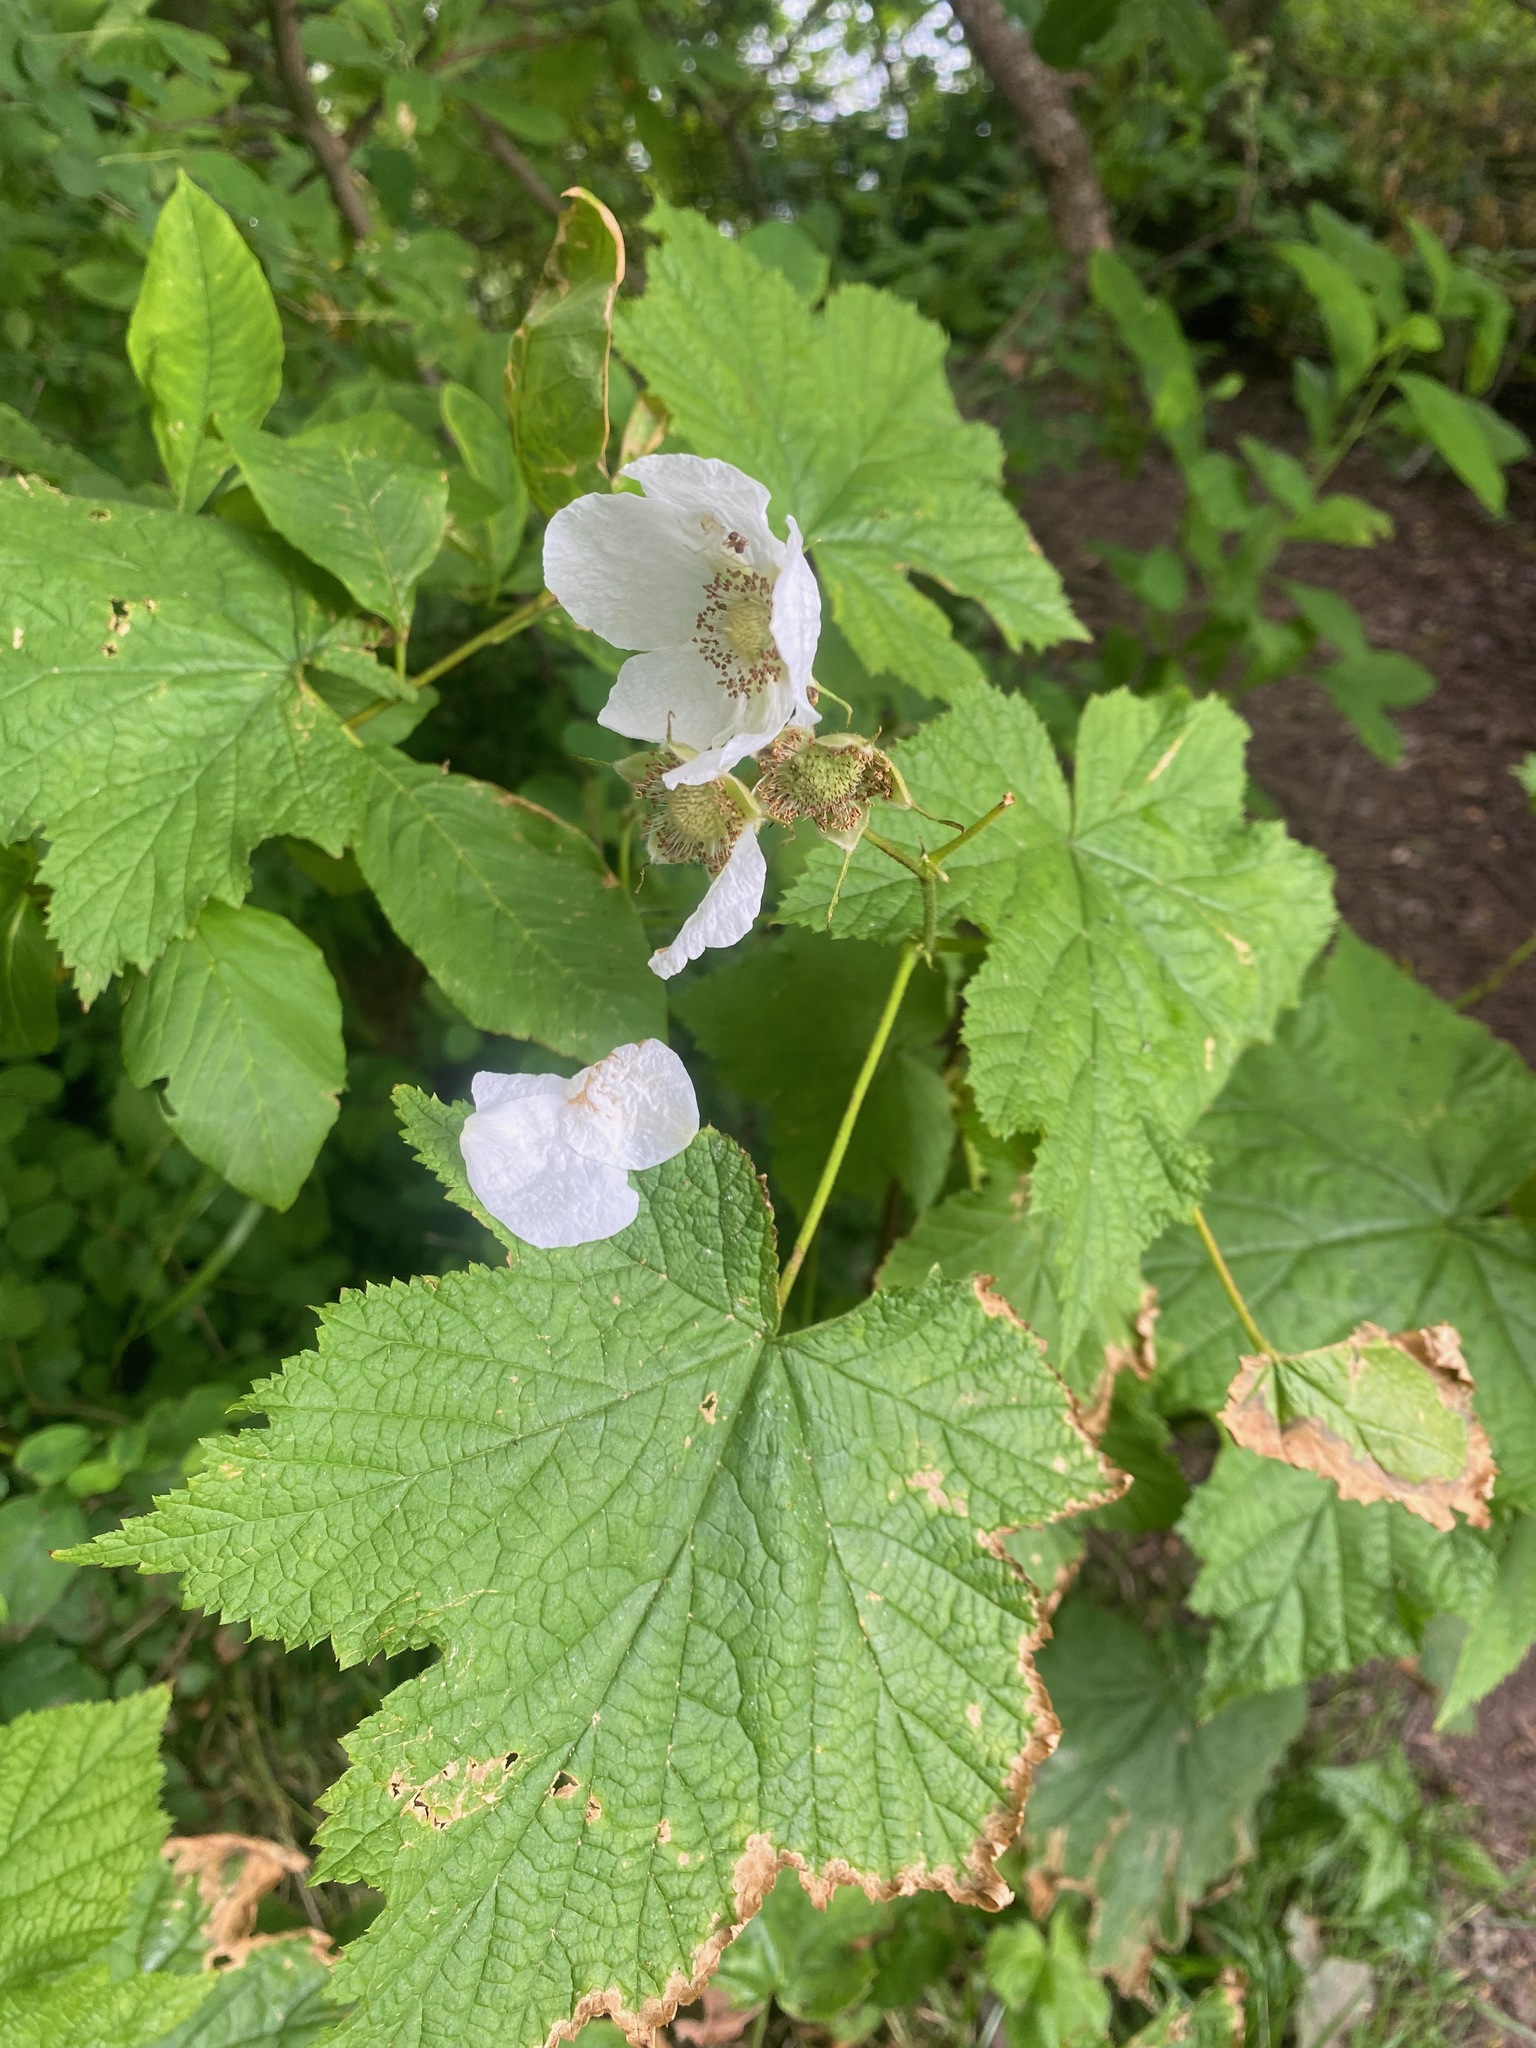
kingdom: Plantae
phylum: Tracheophyta
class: Magnoliopsida
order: Rosales
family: Rosaceae
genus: Rubus
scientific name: Rubus parviflorus
